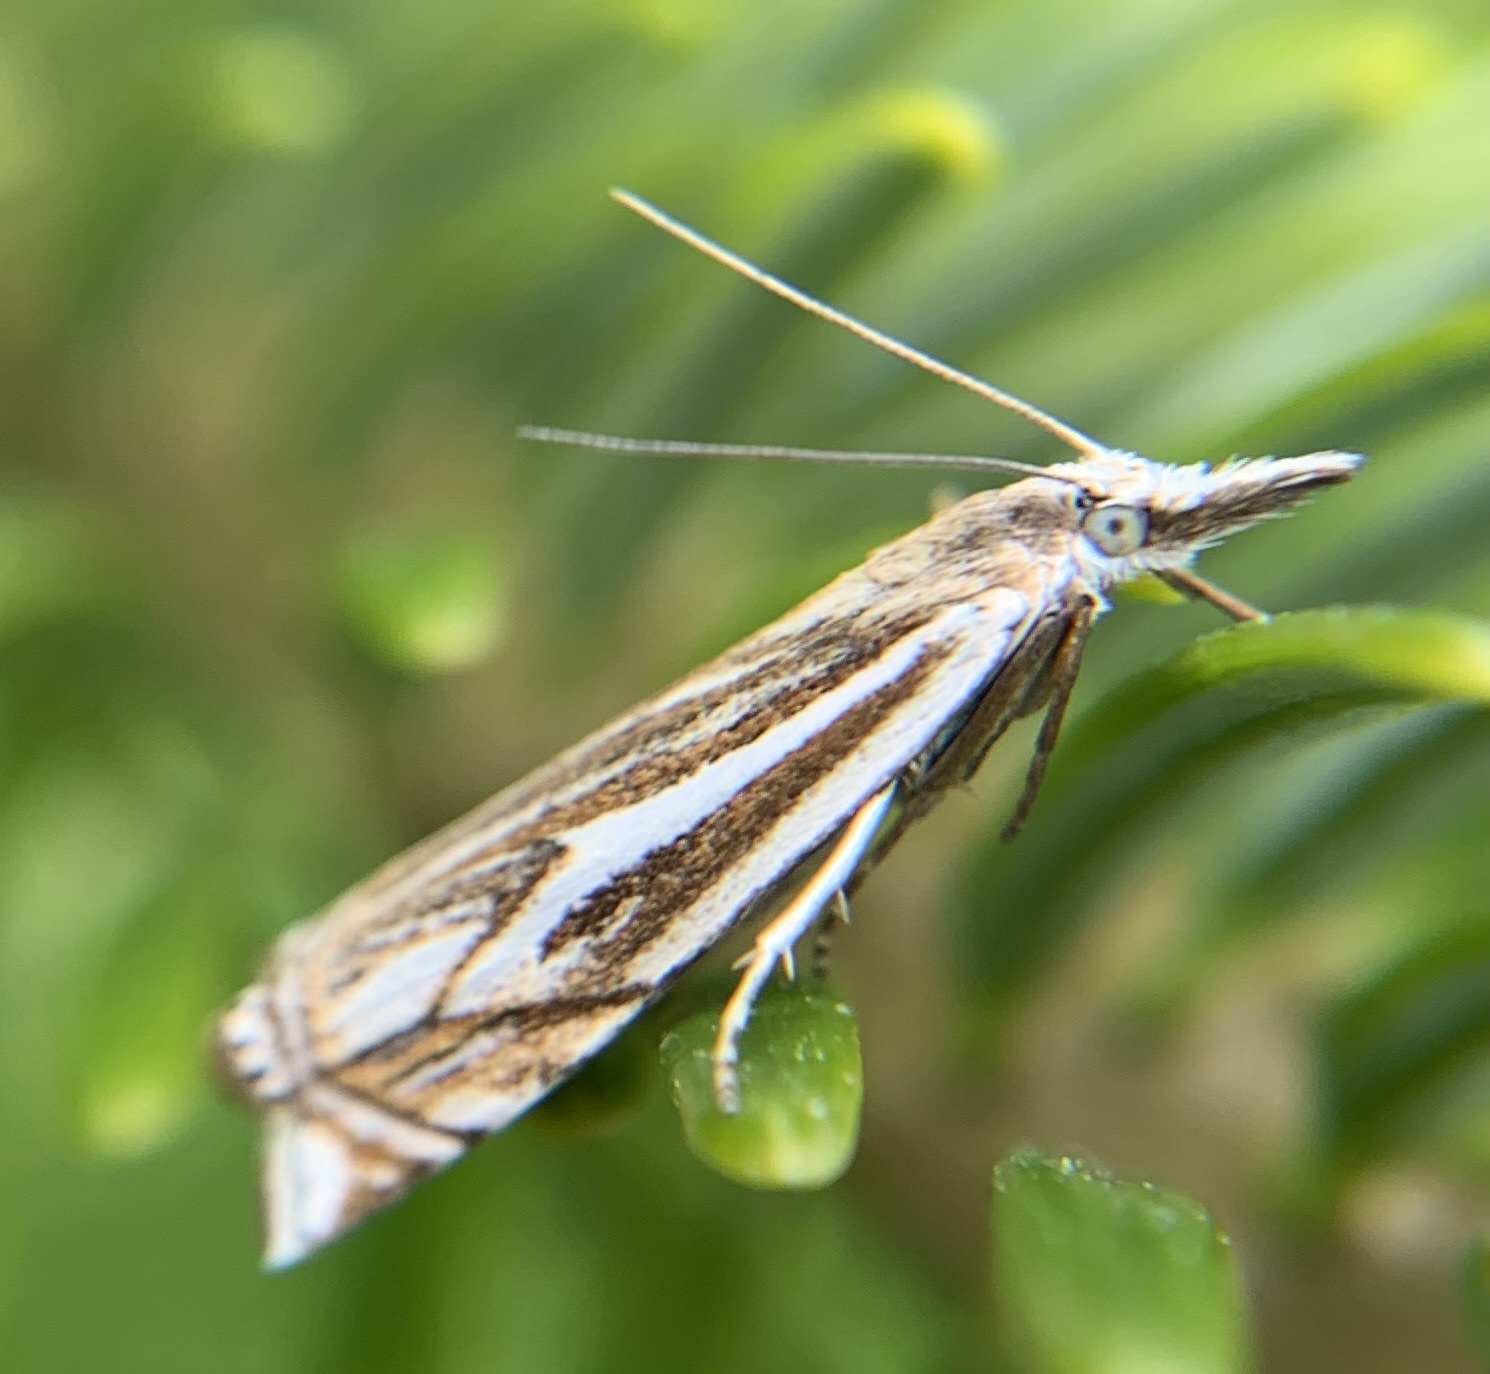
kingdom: Animalia
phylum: Arthropoda
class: Insecta
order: Lepidoptera
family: Crambidae
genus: Crambus
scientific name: Crambus nemorella
